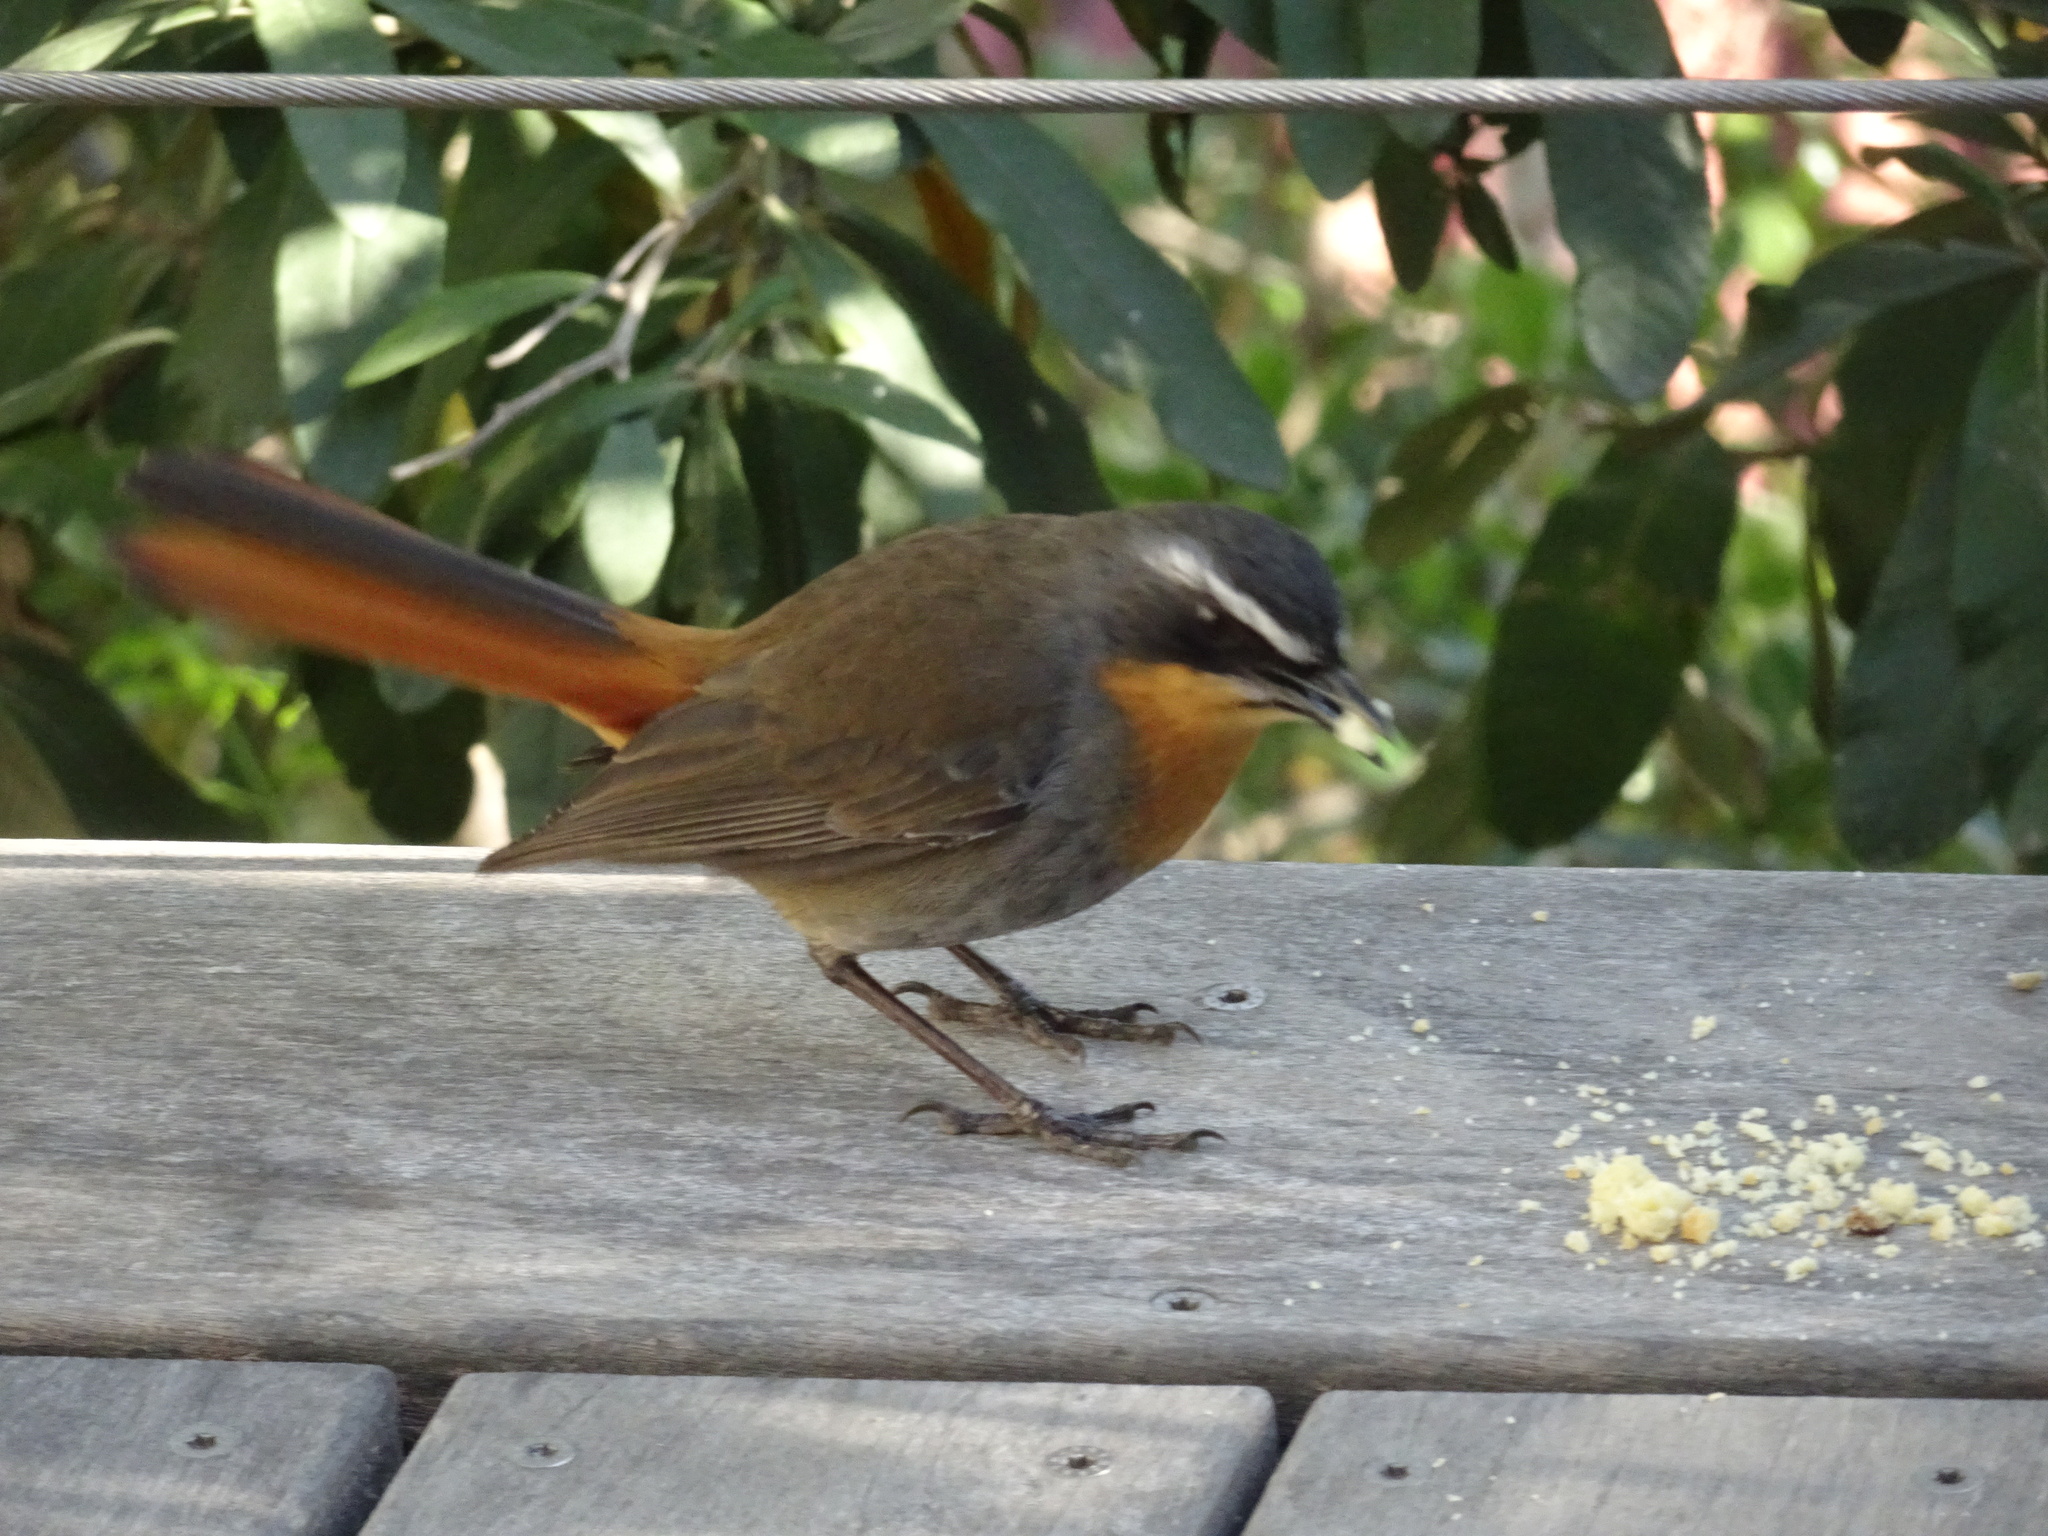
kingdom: Animalia
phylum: Chordata
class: Aves
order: Passeriformes
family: Muscicapidae
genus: Cossypha
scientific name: Cossypha caffra
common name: Cape robin-chat
